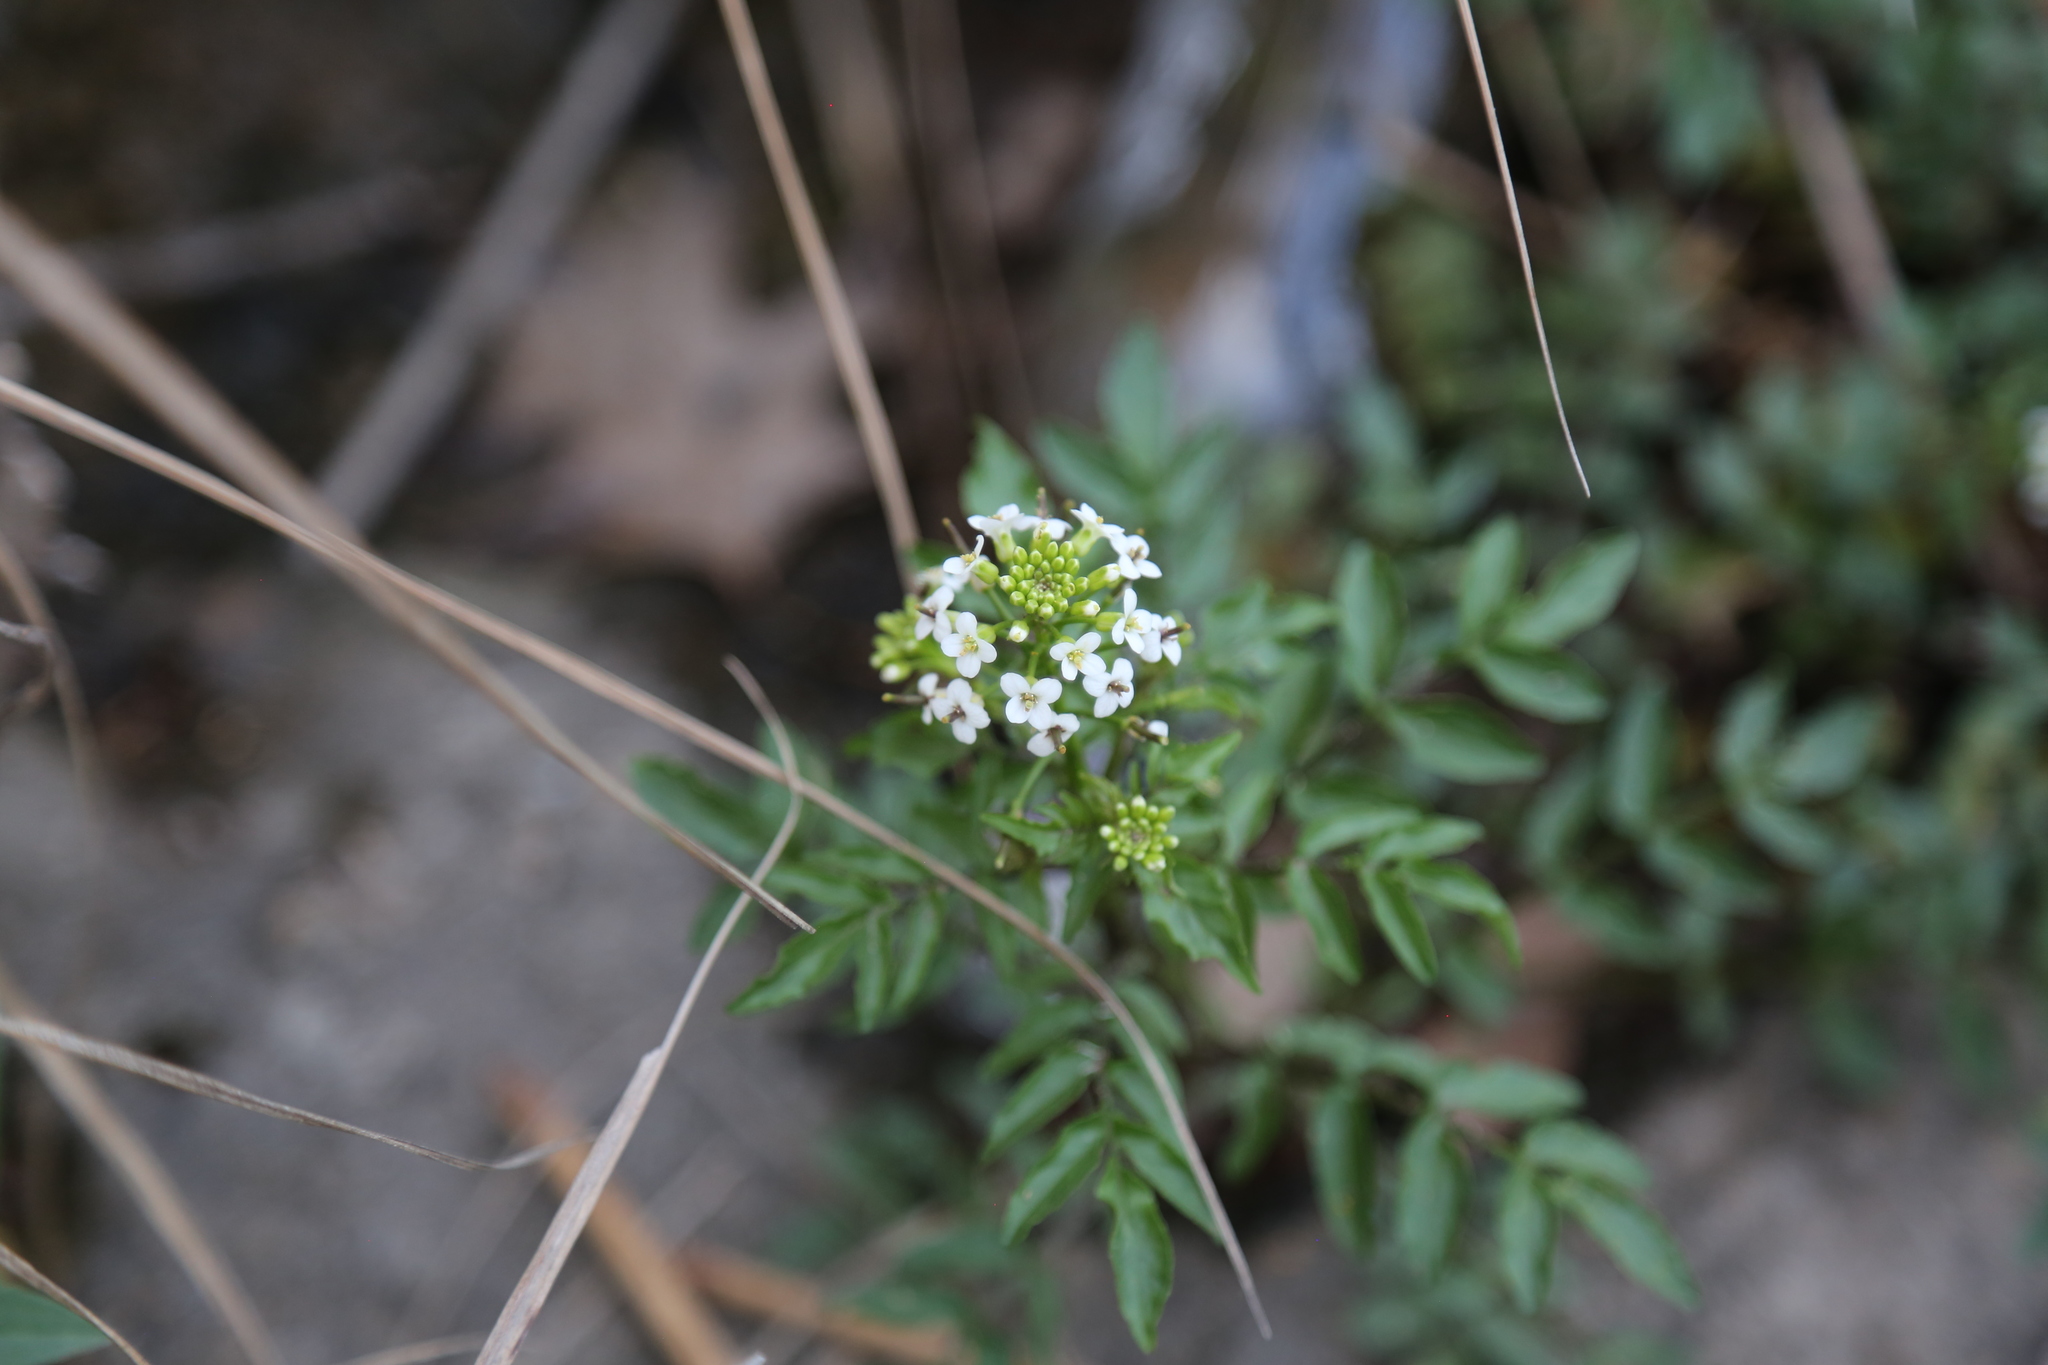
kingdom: Plantae
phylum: Tracheophyta
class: Magnoliopsida
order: Brassicales
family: Brassicaceae
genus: Nasturtium
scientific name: Nasturtium officinale
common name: Watercress
